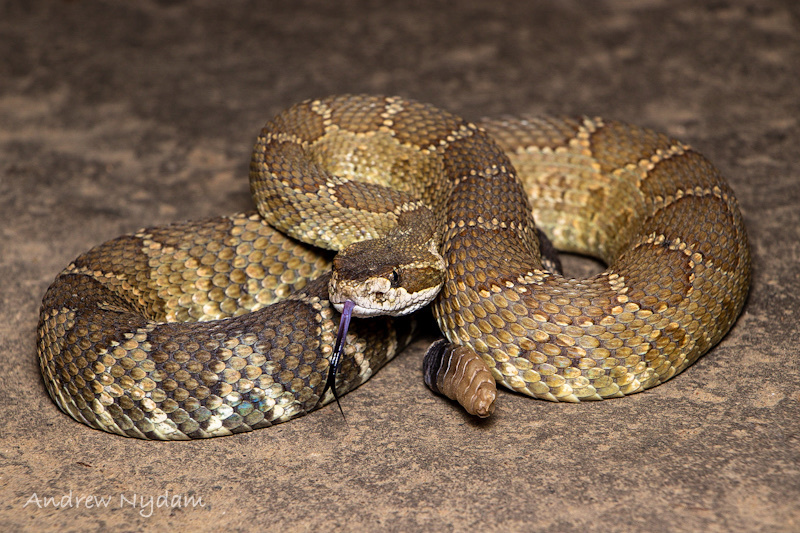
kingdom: Animalia
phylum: Chordata
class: Squamata
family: Viperidae
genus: Crotalus
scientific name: Crotalus oreganus
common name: Abyssus
